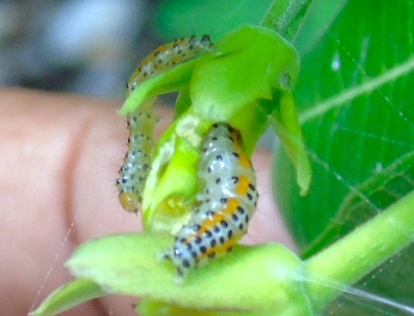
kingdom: Animalia
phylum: Arthropoda
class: Insecta
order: Lepidoptera
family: Crambidae
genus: Palpita
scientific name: Palpita flegia
